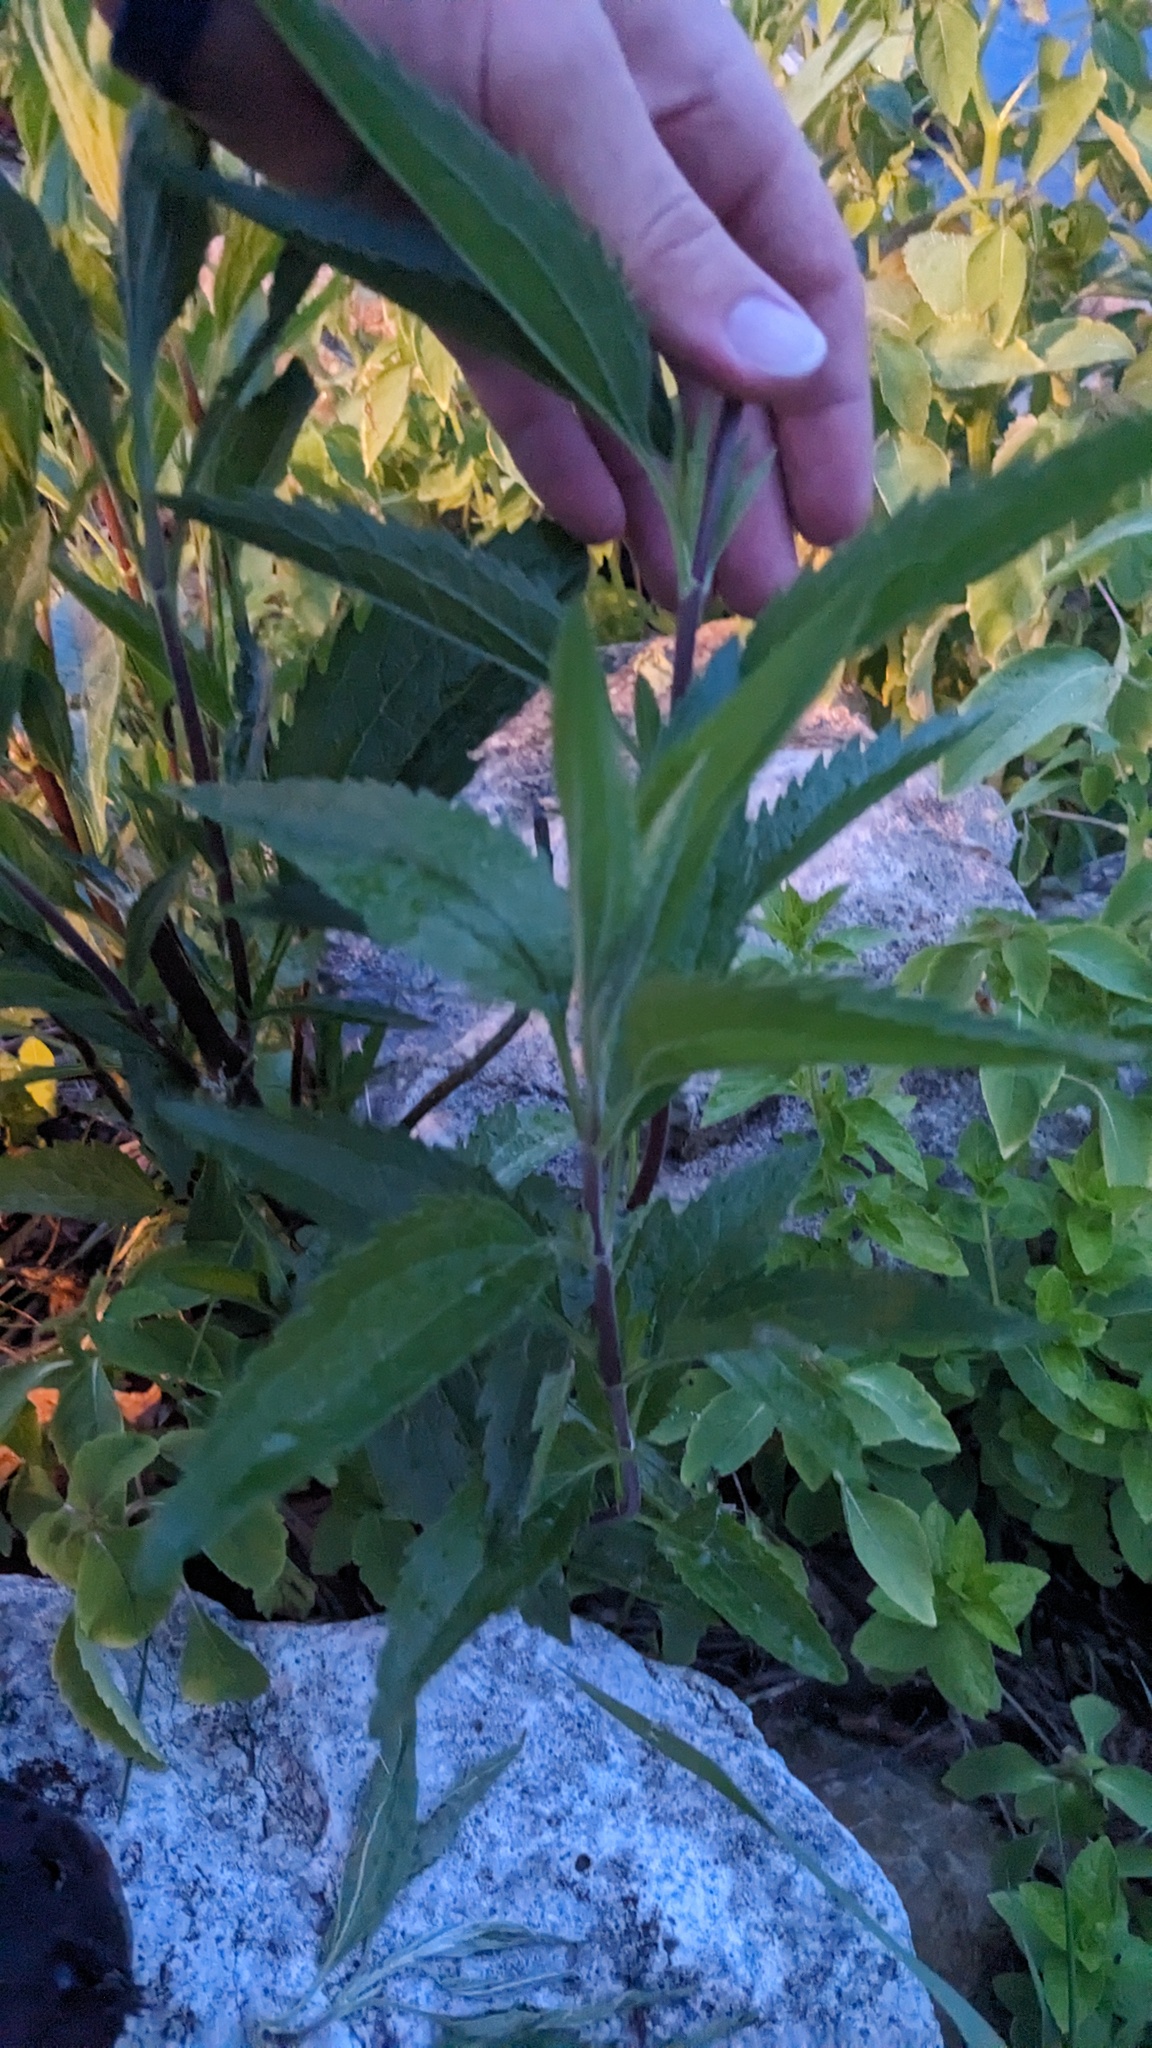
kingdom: Plantae
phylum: Tracheophyta
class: Magnoliopsida
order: Asterales
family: Asteraceae
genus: Eupatorium
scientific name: Eupatorium serotinum
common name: Late boneset
